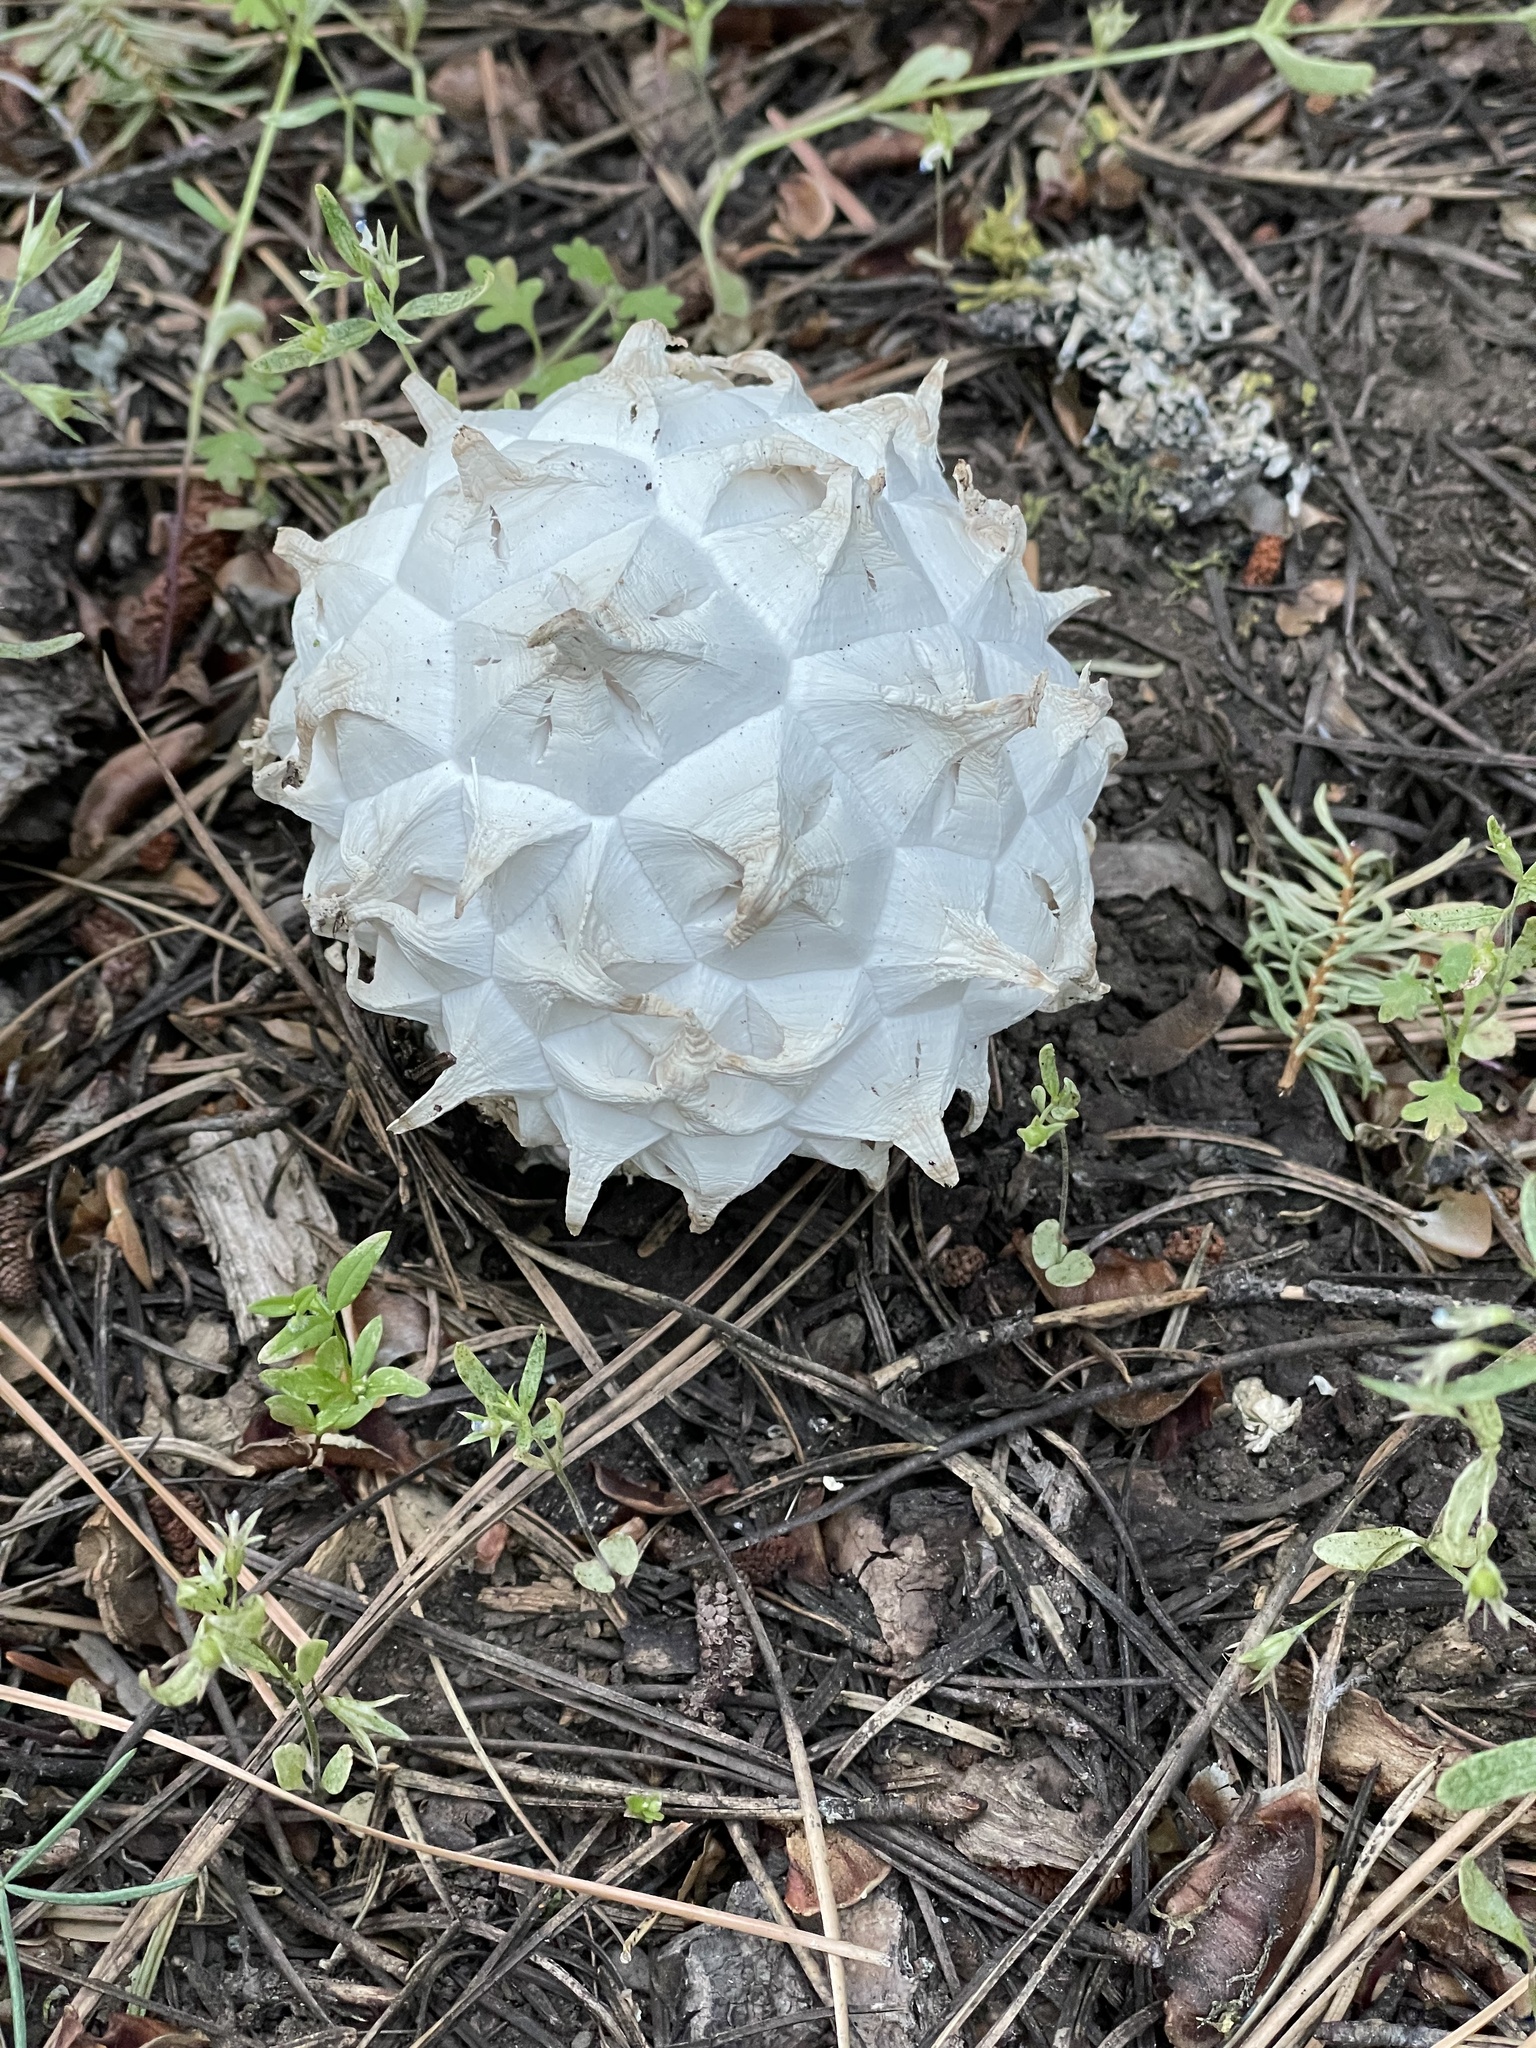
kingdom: Fungi
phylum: Basidiomycota
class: Agaricomycetes
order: Agaricales
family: Lycoperdaceae
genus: Calvatia
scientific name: Calvatia sculpta
